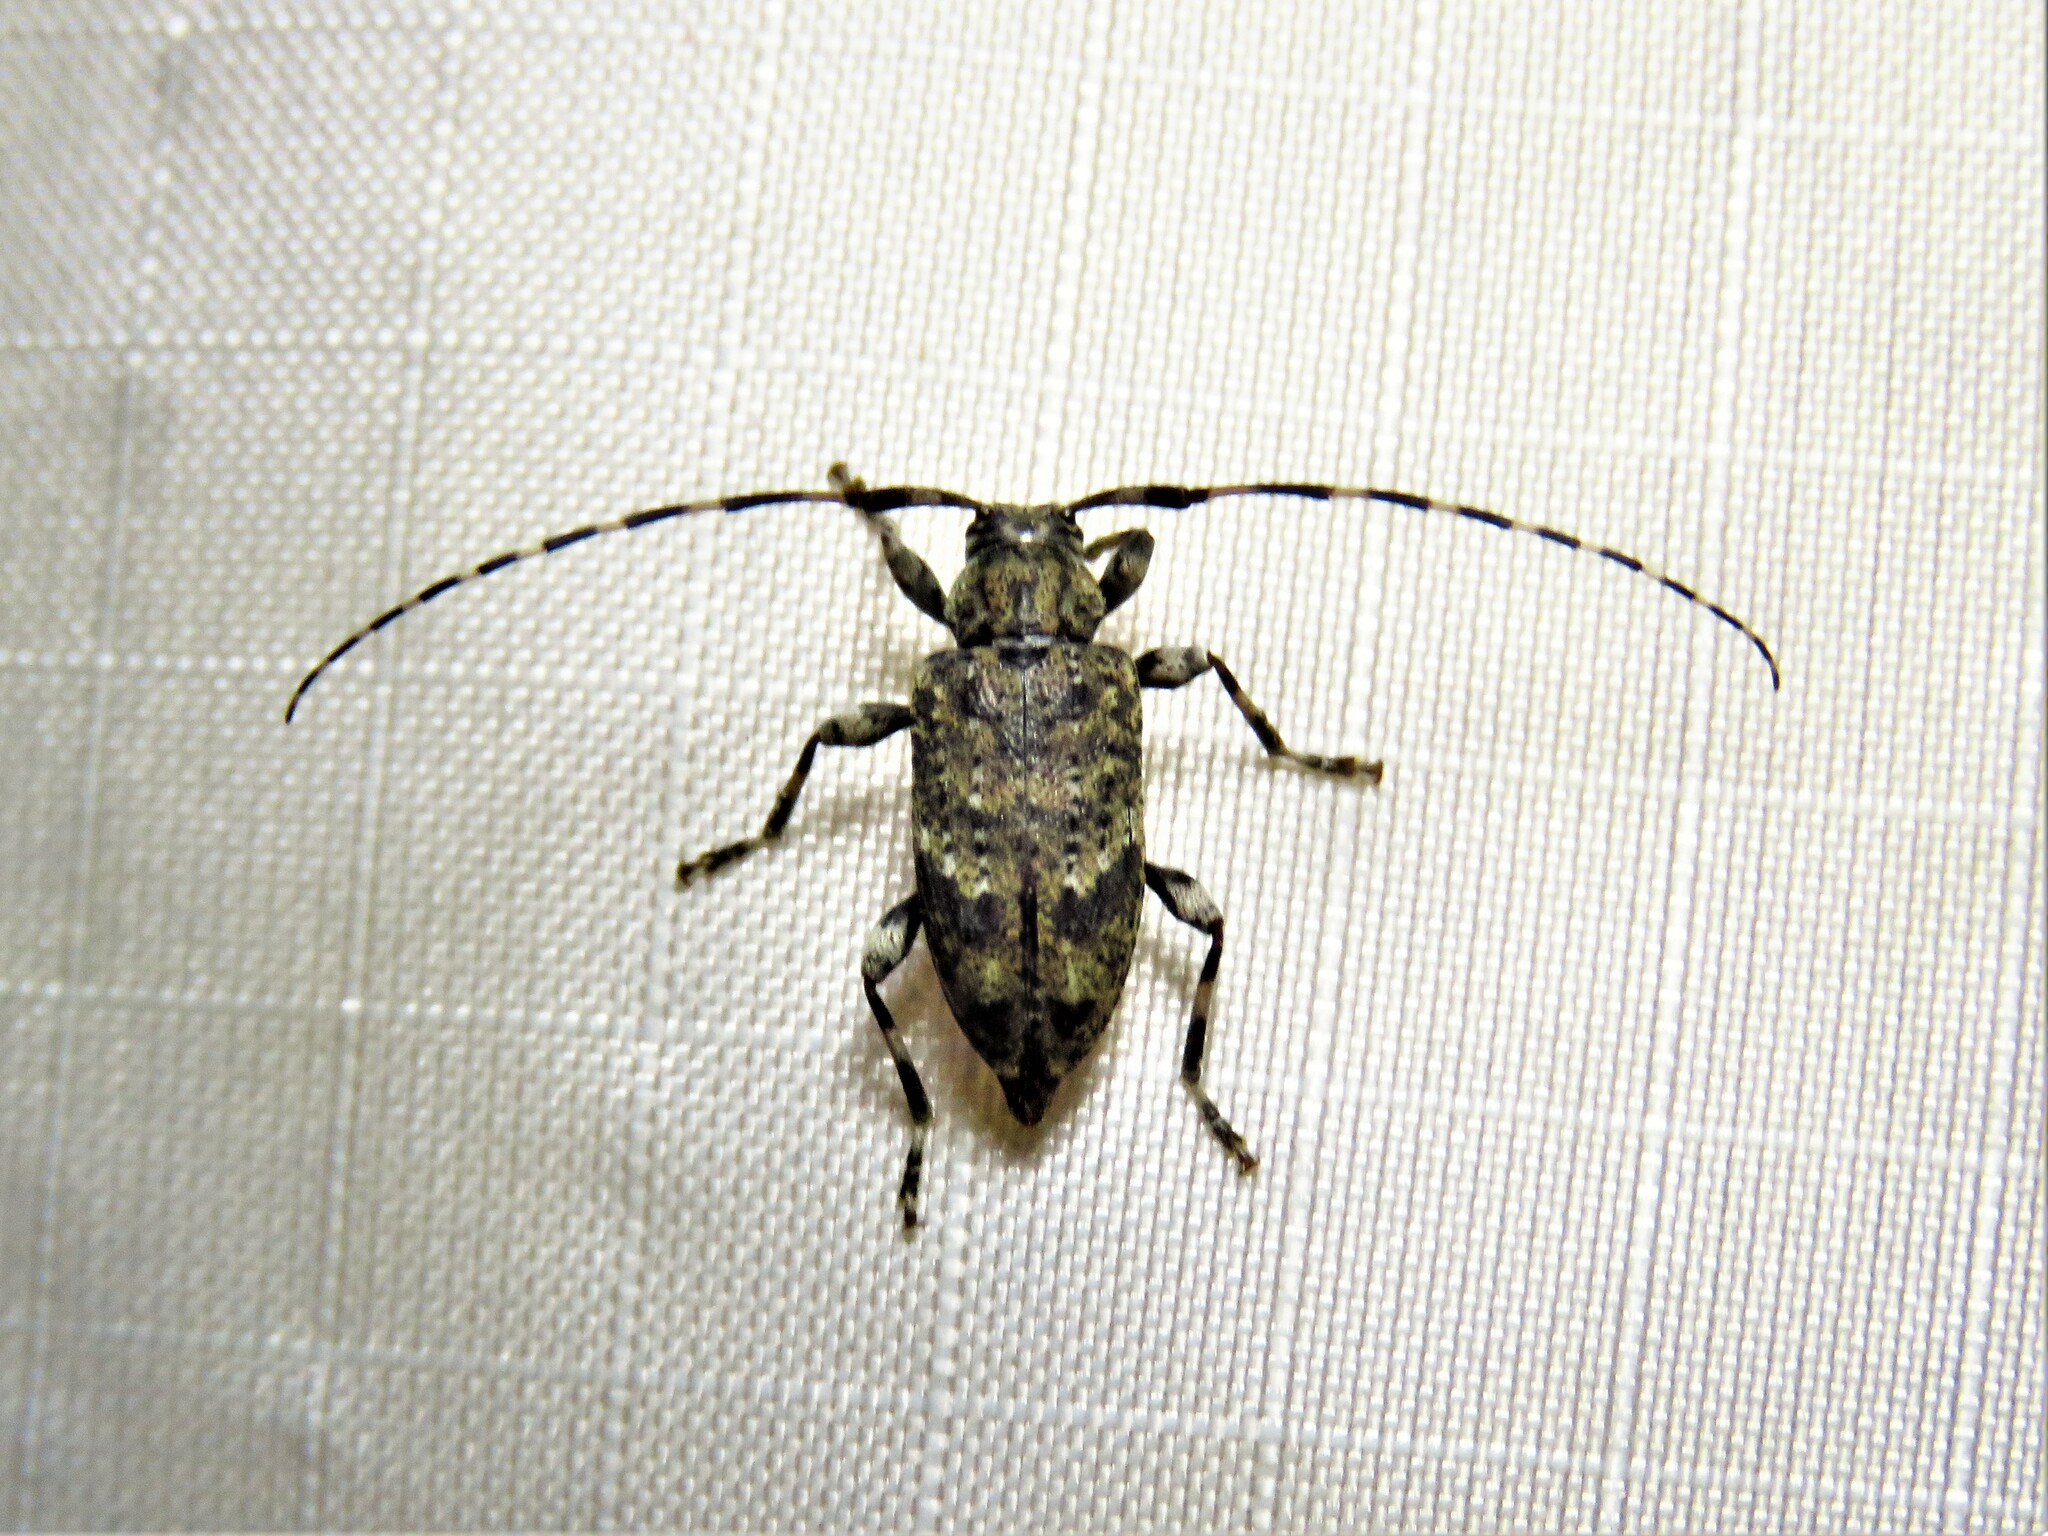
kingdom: Animalia
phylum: Arthropoda
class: Insecta
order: Coleoptera
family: Cerambycidae
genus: Astyleiopus
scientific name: Astyleiopus variegatus
